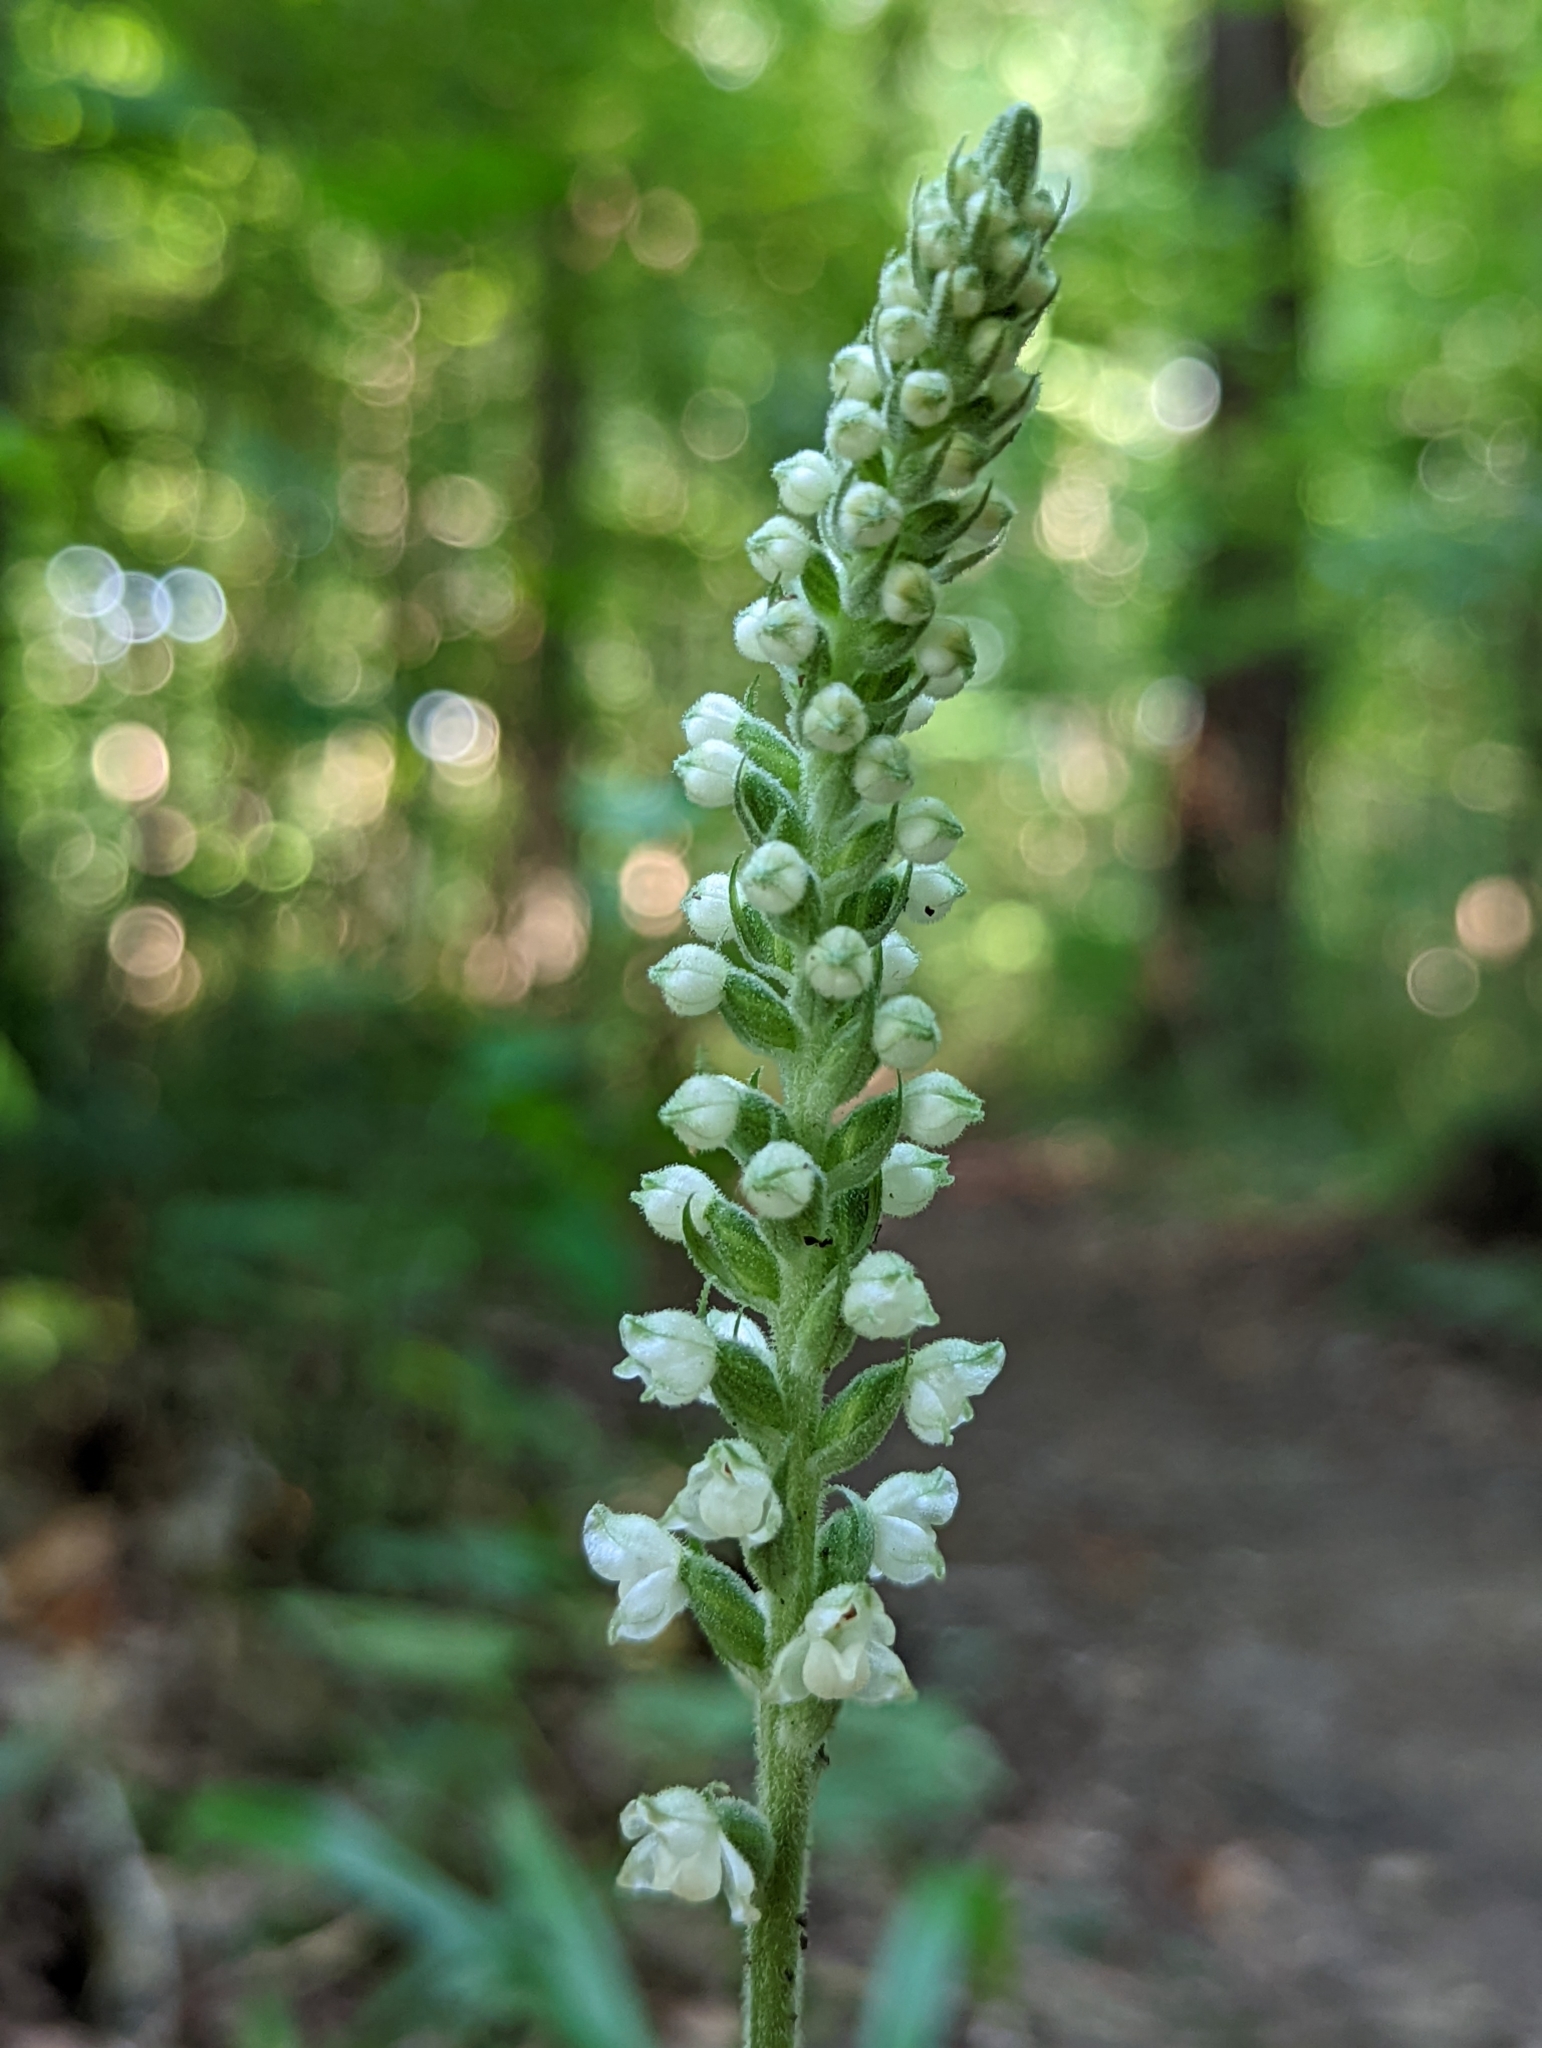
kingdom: Plantae
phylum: Tracheophyta
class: Liliopsida
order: Asparagales
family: Orchidaceae
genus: Goodyera
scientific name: Goodyera pubescens
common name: Downy rattlesnake-plantain
